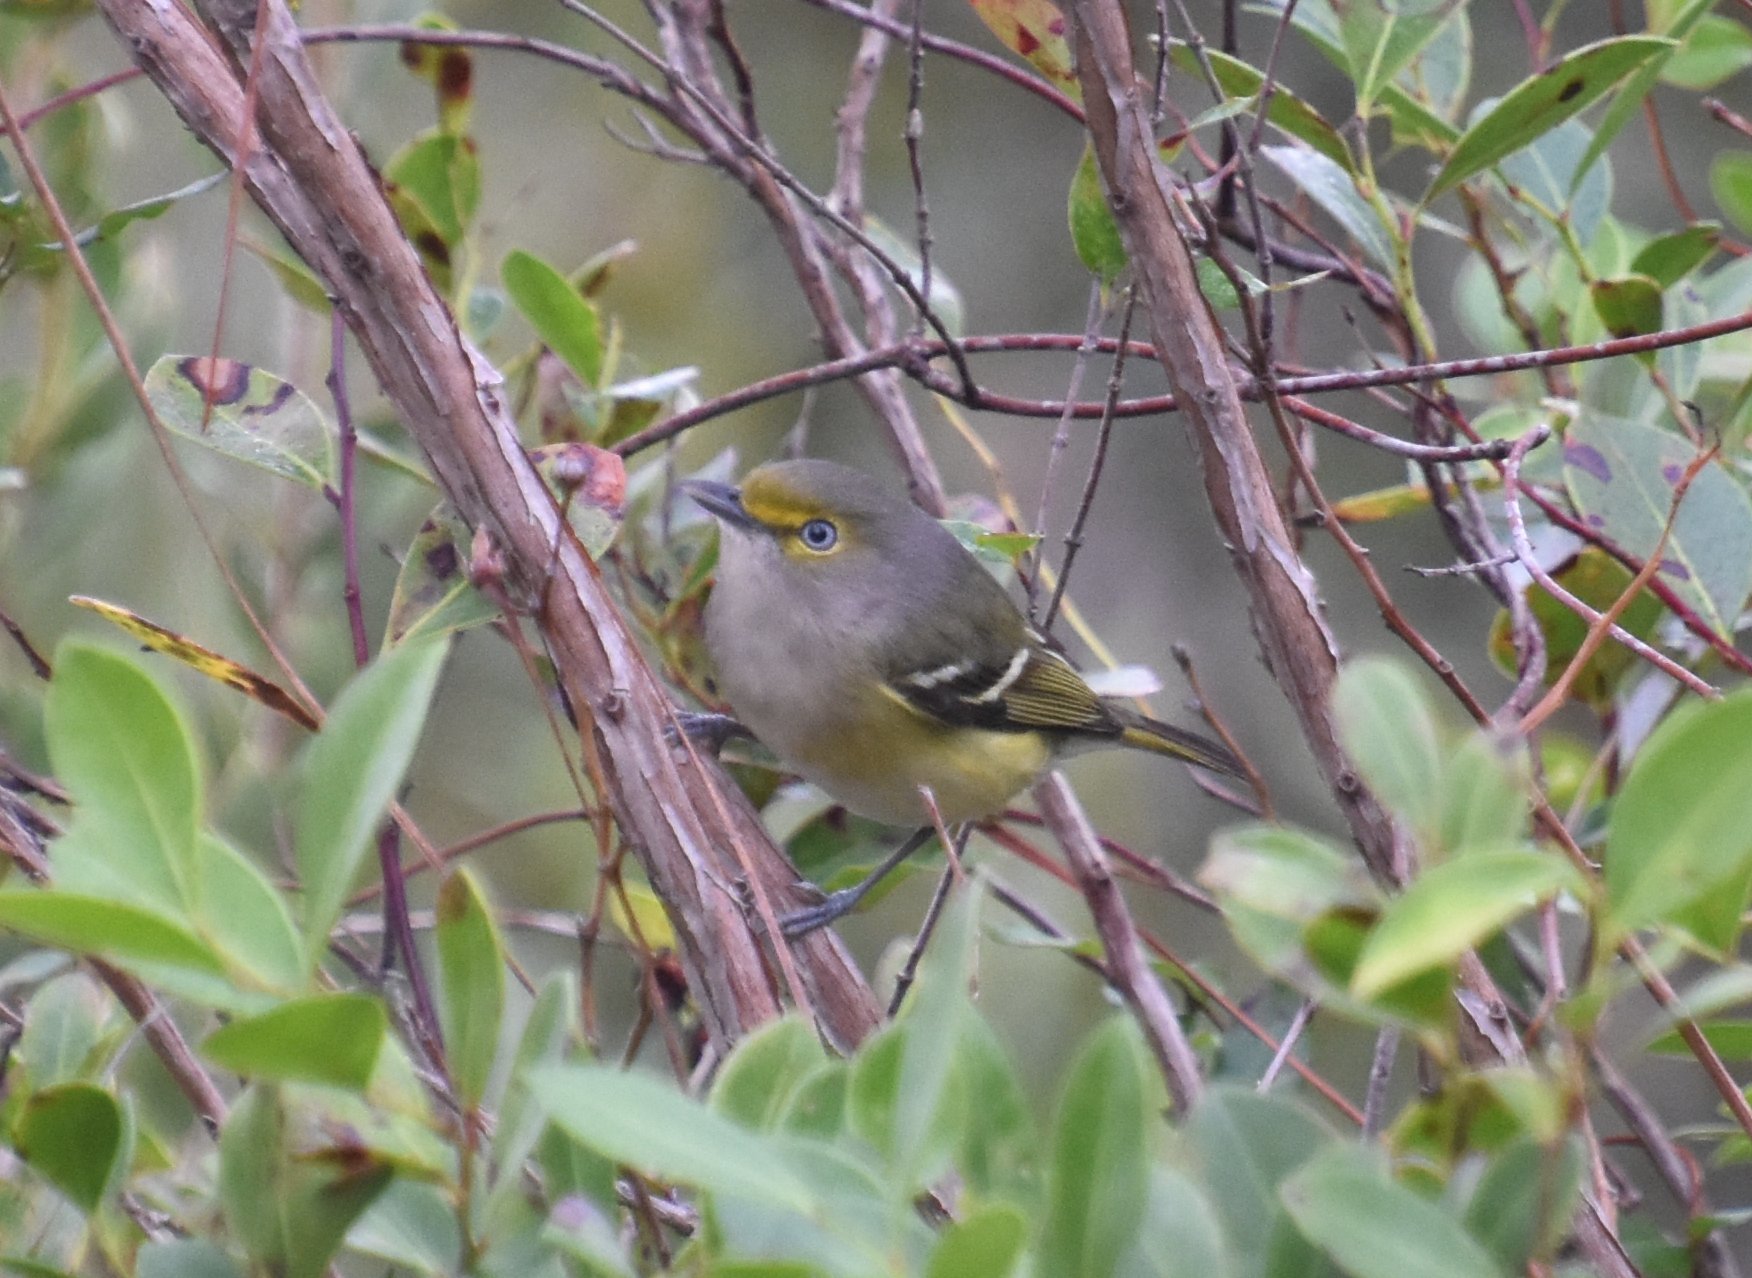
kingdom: Animalia
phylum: Chordata
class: Aves
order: Passeriformes
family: Vireonidae
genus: Vireo
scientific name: Vireo griseus
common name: White-eyed vireo
